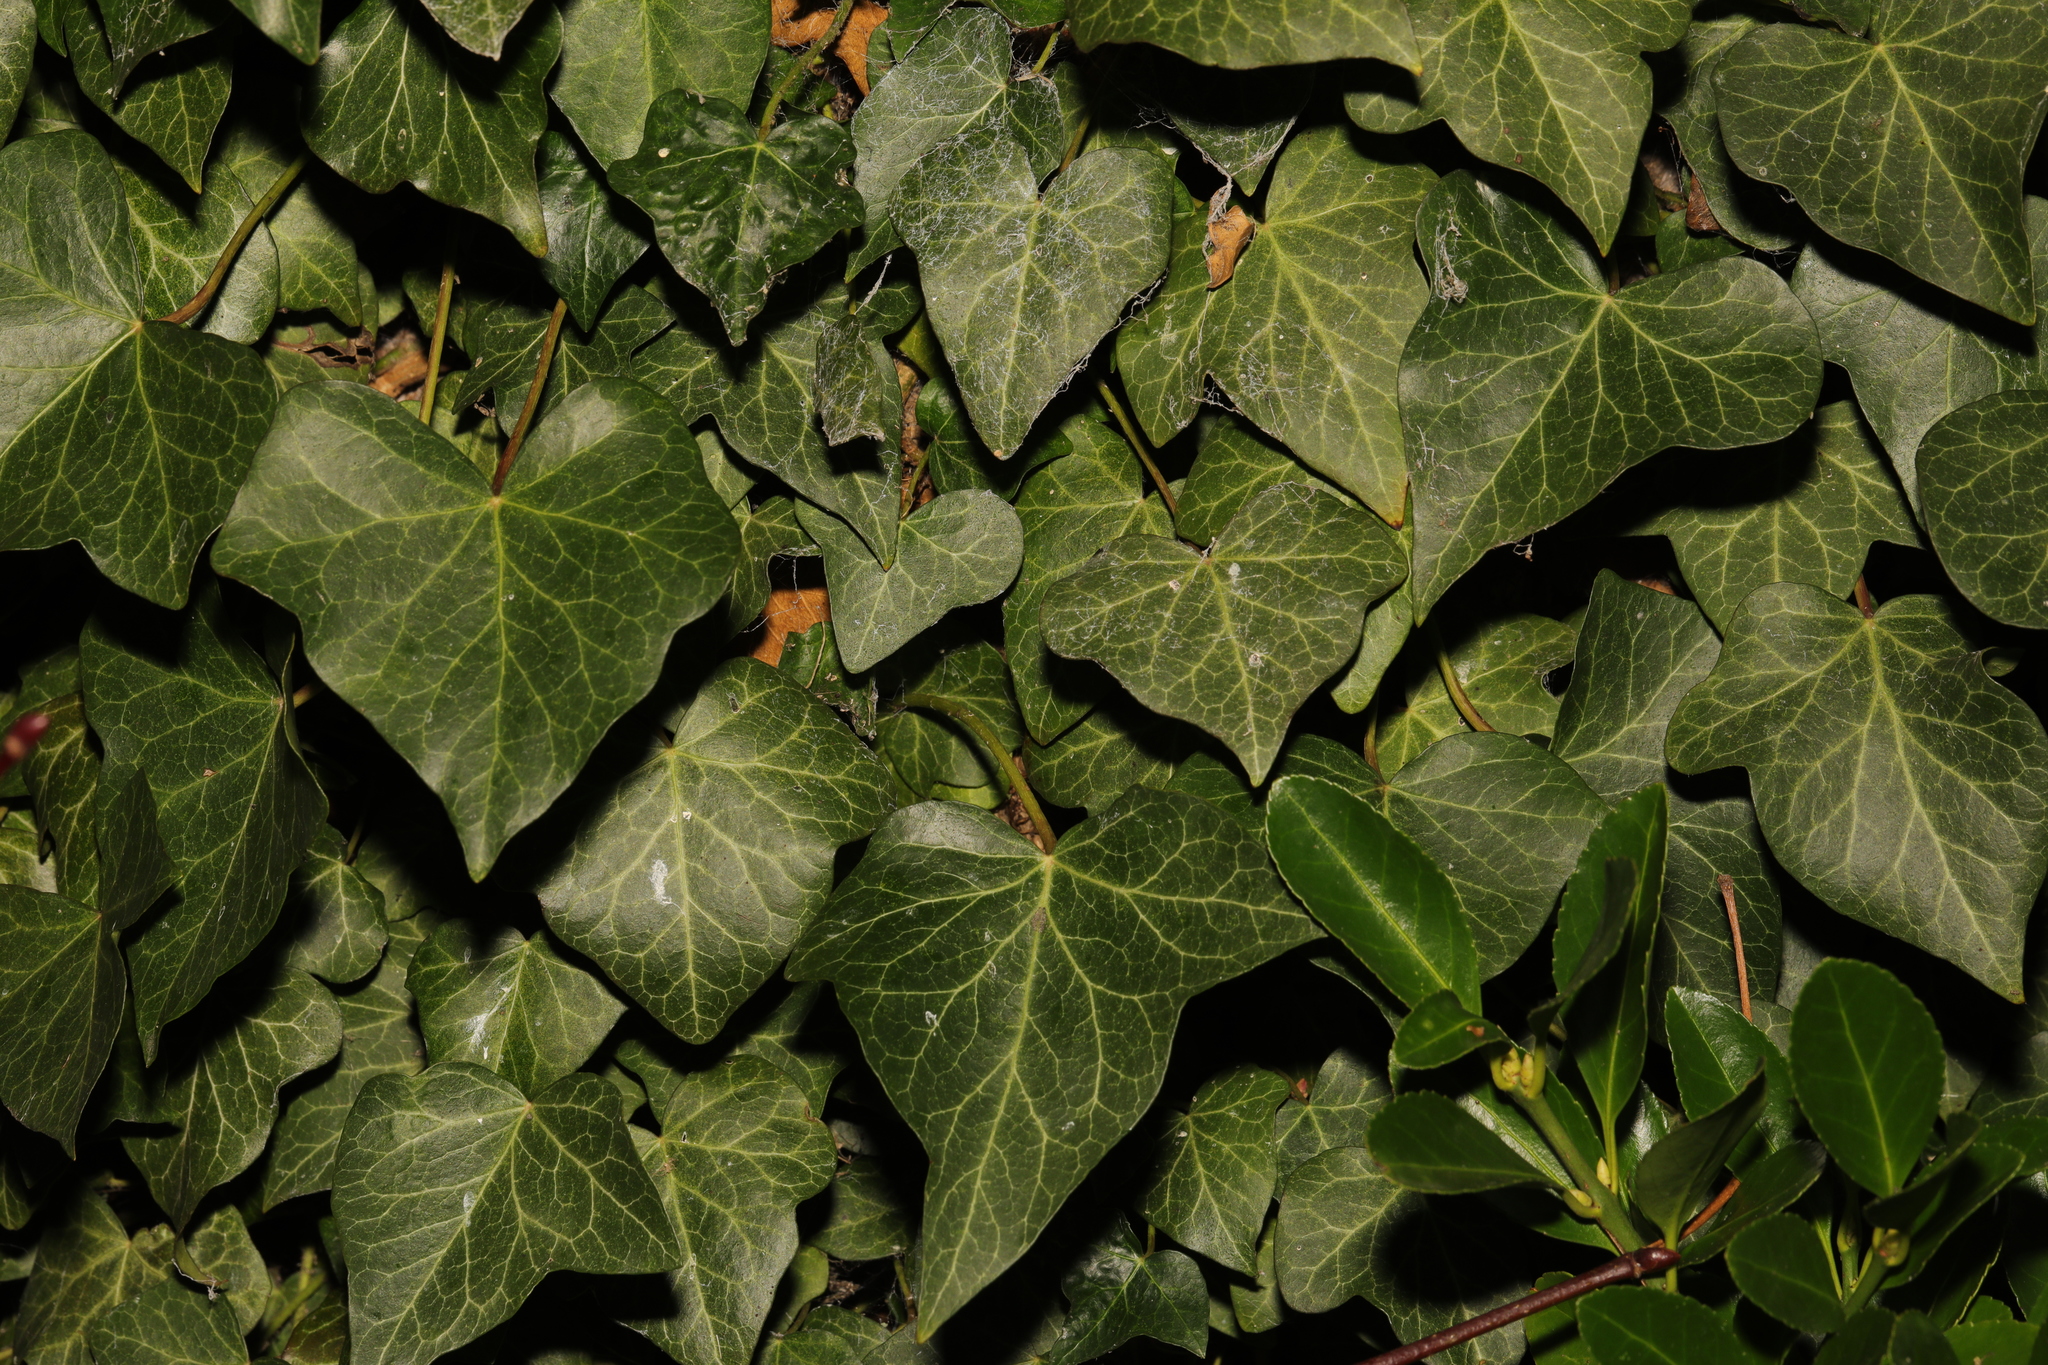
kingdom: Plantae
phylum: Tracheophyta
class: Magnoliopsida
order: Apiales
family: Araliaceae
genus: Hedera
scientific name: Hedera helix
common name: Ivy
